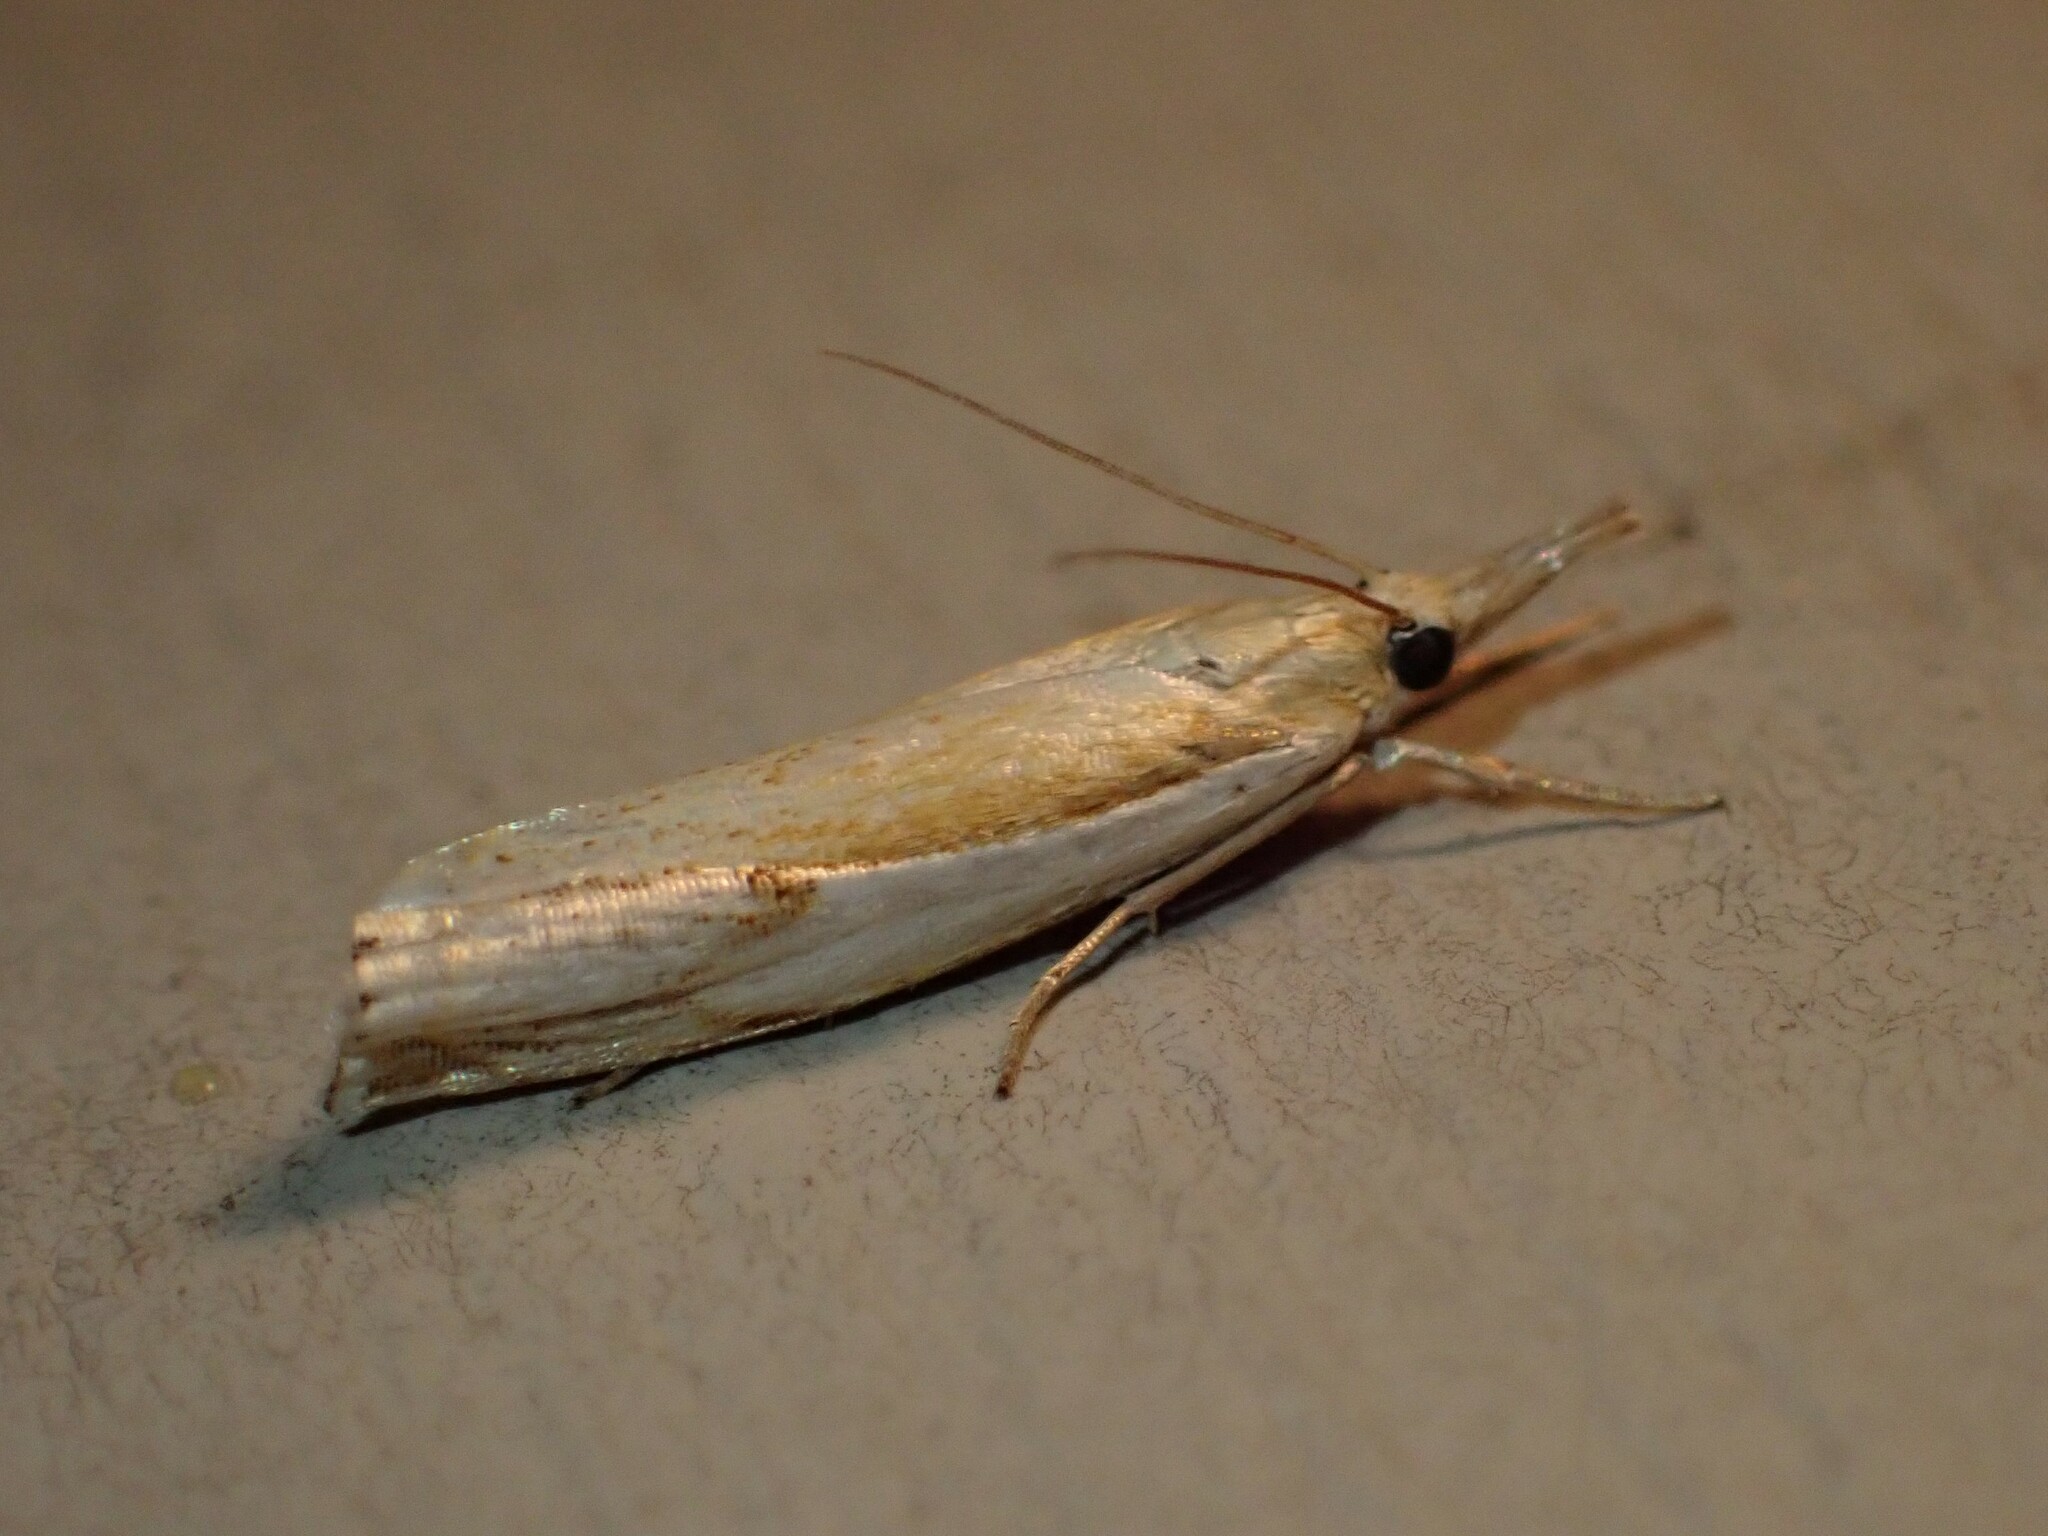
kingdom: Animalia
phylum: Arthropoda
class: Insecta
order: Lepidoptera
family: Crambidae
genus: Crambus
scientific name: Crambus agitatellus
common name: Double-banded grass-veneer
